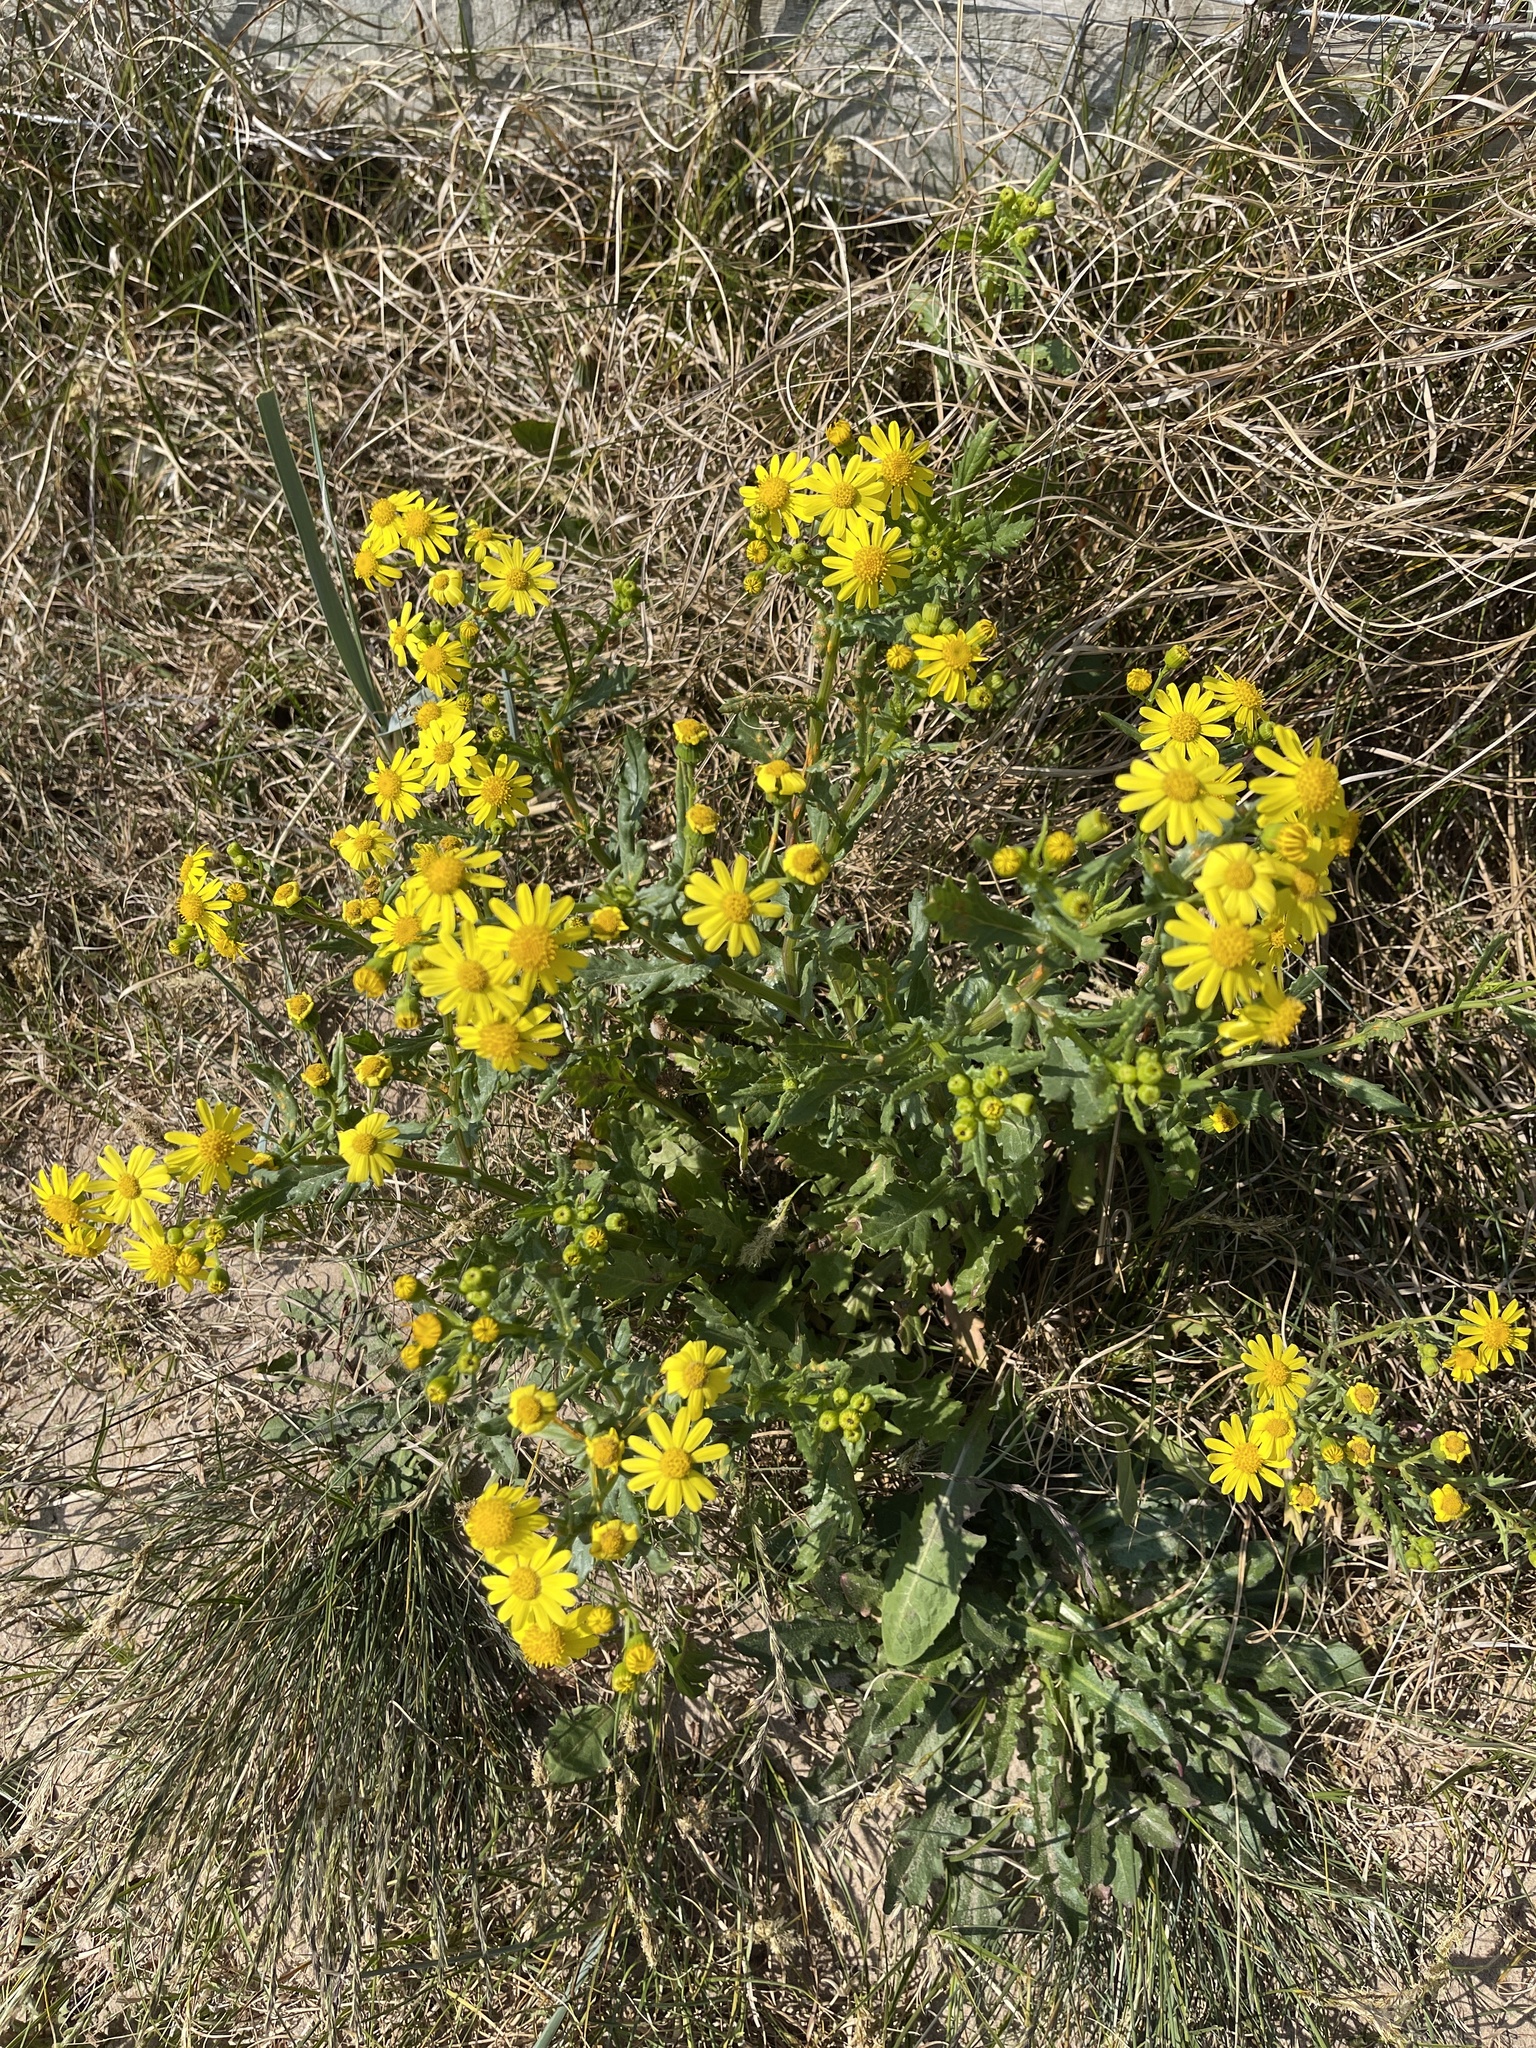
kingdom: Plantae
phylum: Tracheophyta
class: Magnoliopsida
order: Asterales
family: Asteraceae
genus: Senecio
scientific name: Senecio squalidus
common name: Oxford ragwort
